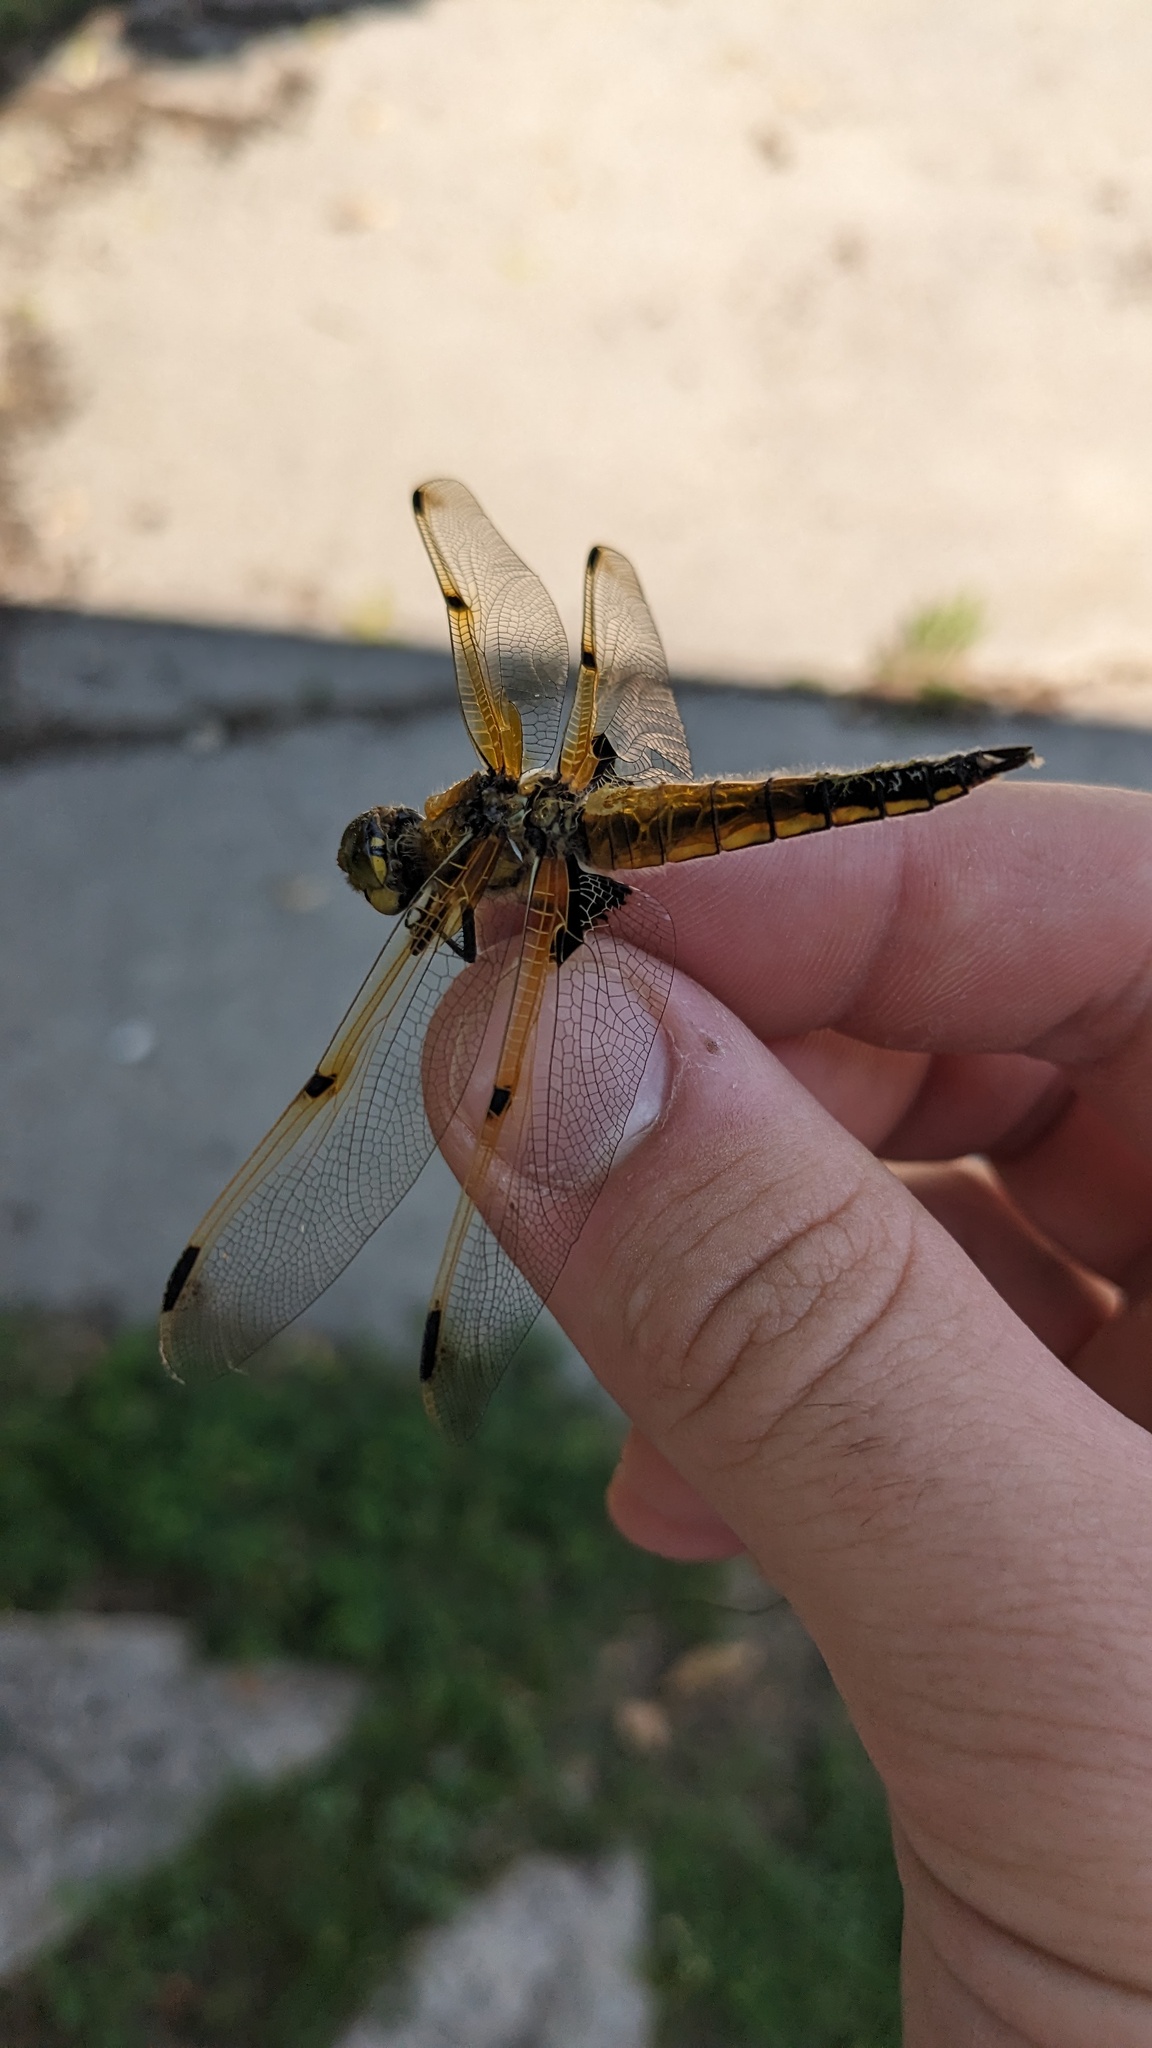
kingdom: Animalia
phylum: Arthropoda
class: Insecta
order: Odonata
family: Libellulidae
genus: Libellula
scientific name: Libellula quadrimaculata
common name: Four-spotted chaser
